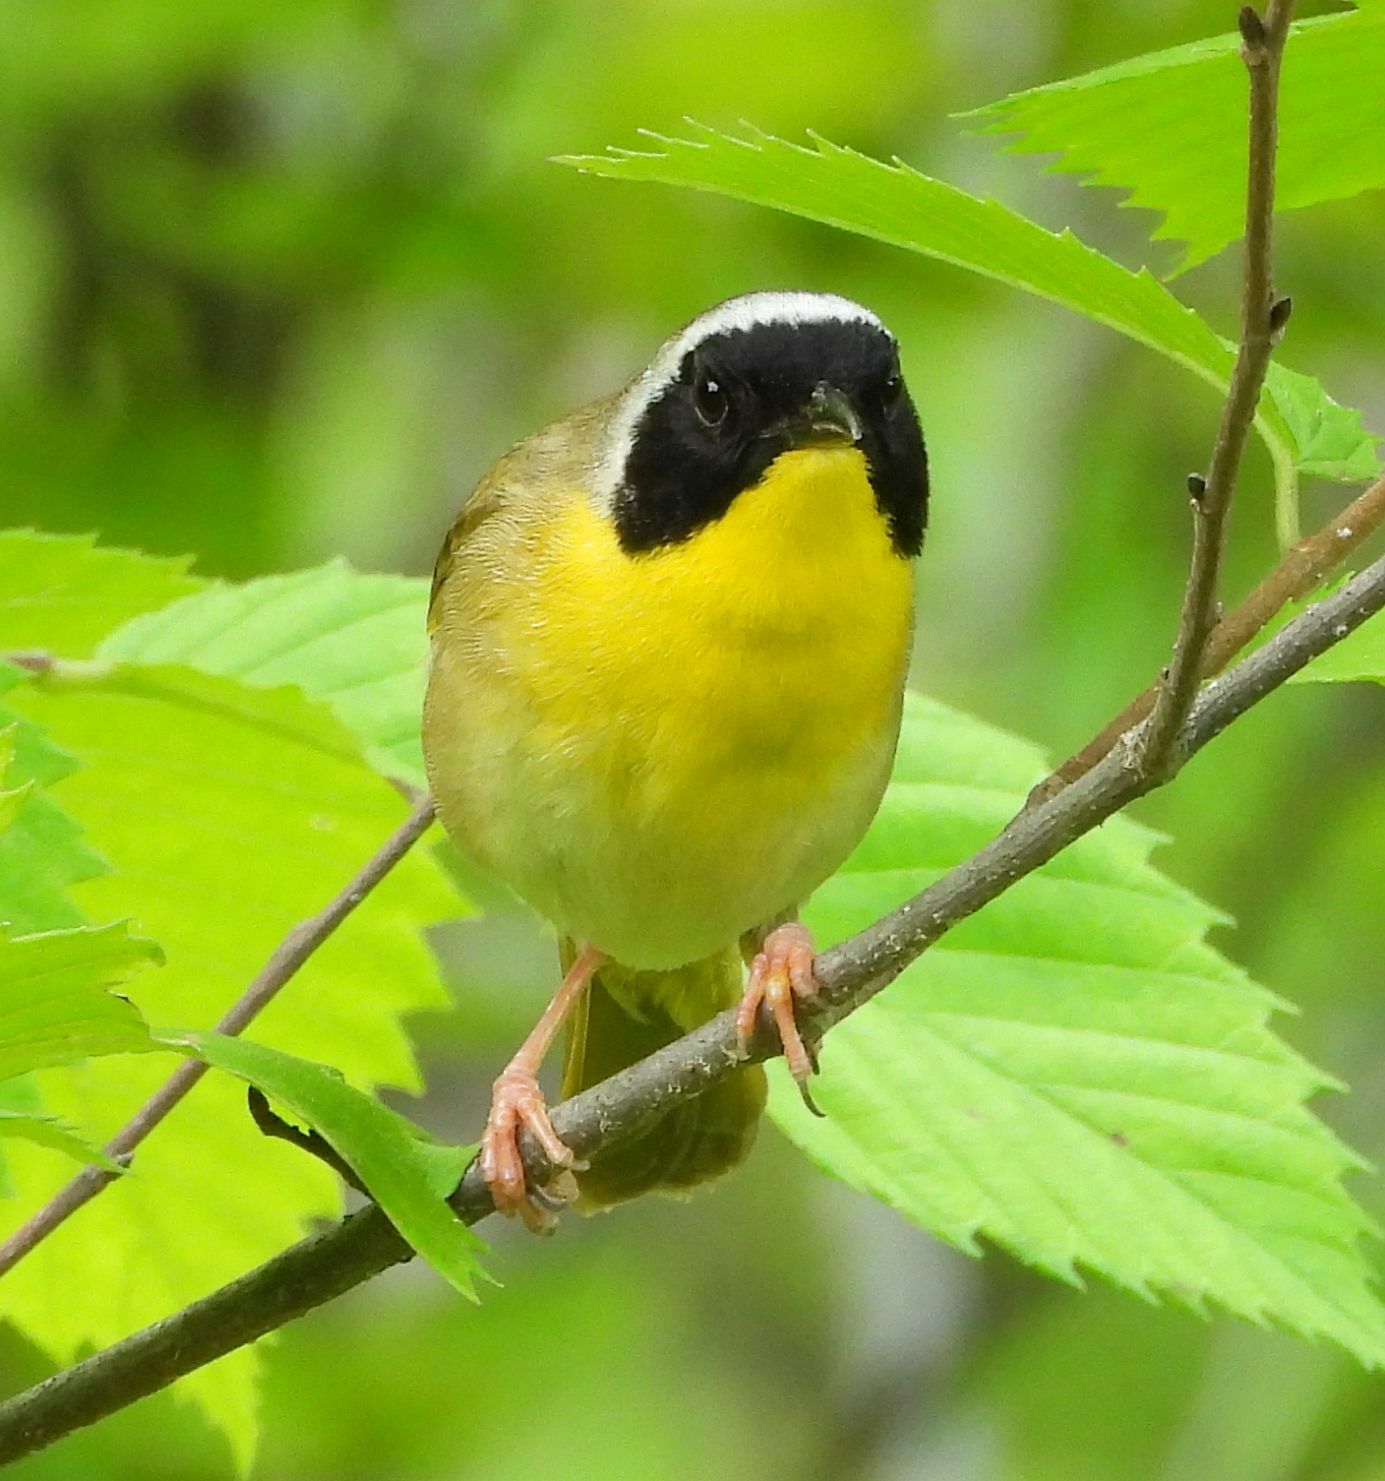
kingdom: Animalia
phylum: Chordata
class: Aves
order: Passeriformes
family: Parulidae
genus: Geothlypis
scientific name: Geothlypis trichas
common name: Common yellowthroat
